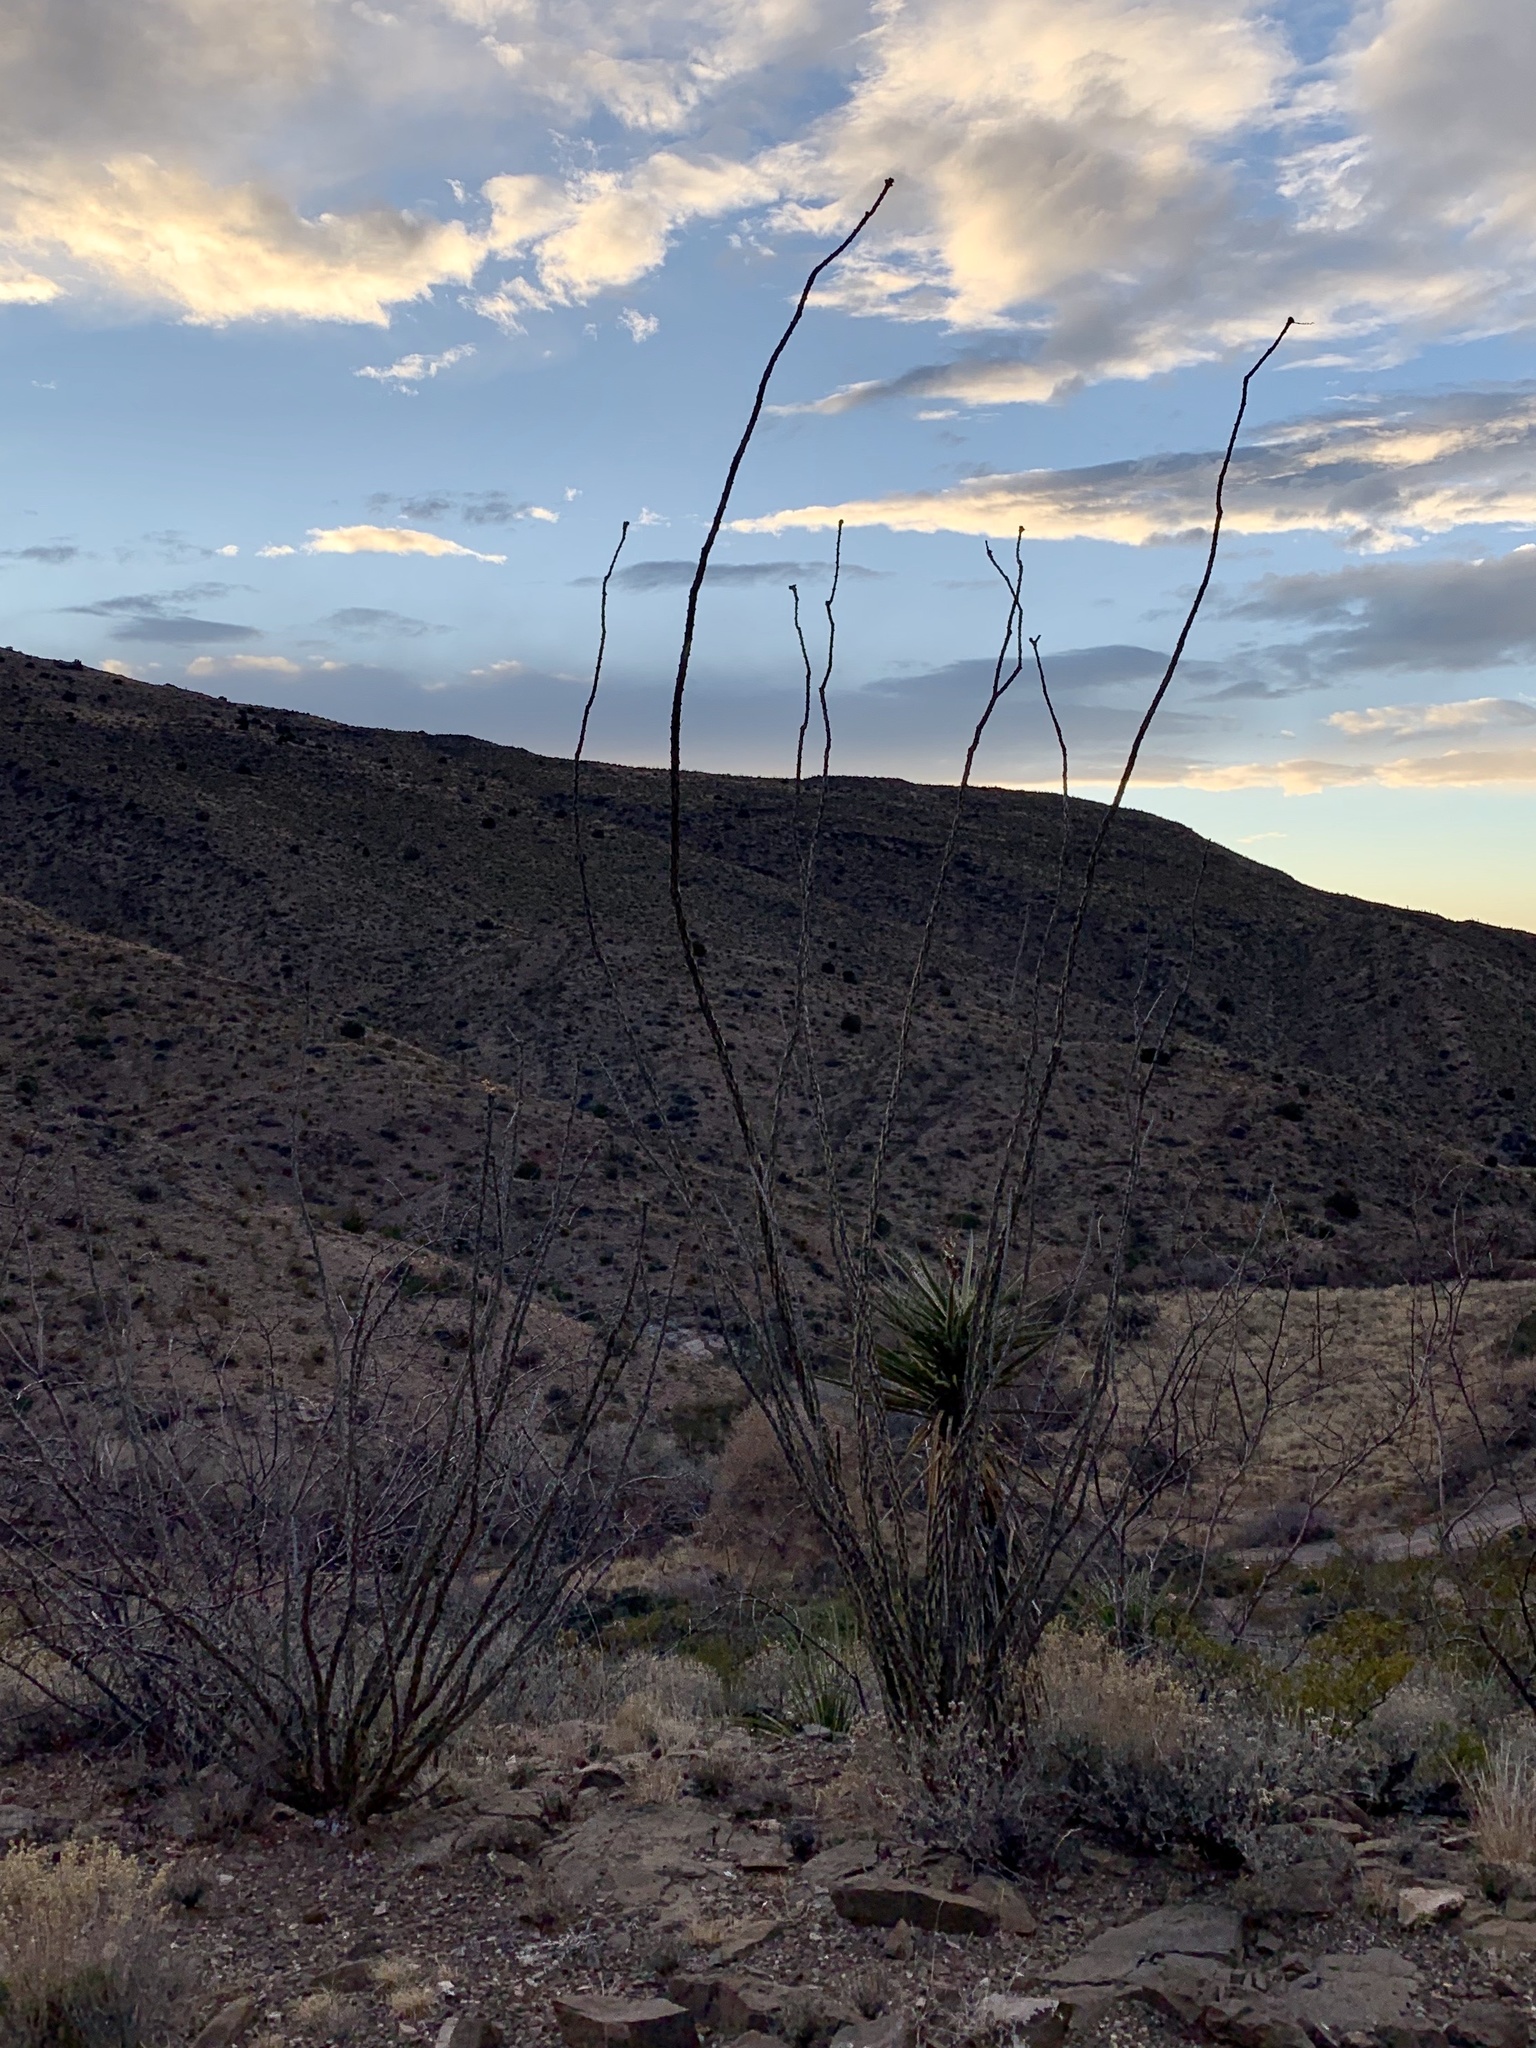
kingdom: Plantae
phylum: Tracheophyta
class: Magnoliopsida
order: Ericales
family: Fouquieriaceae
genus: Fouquieria
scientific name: Fouquieria splendens
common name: Vine-cactus
